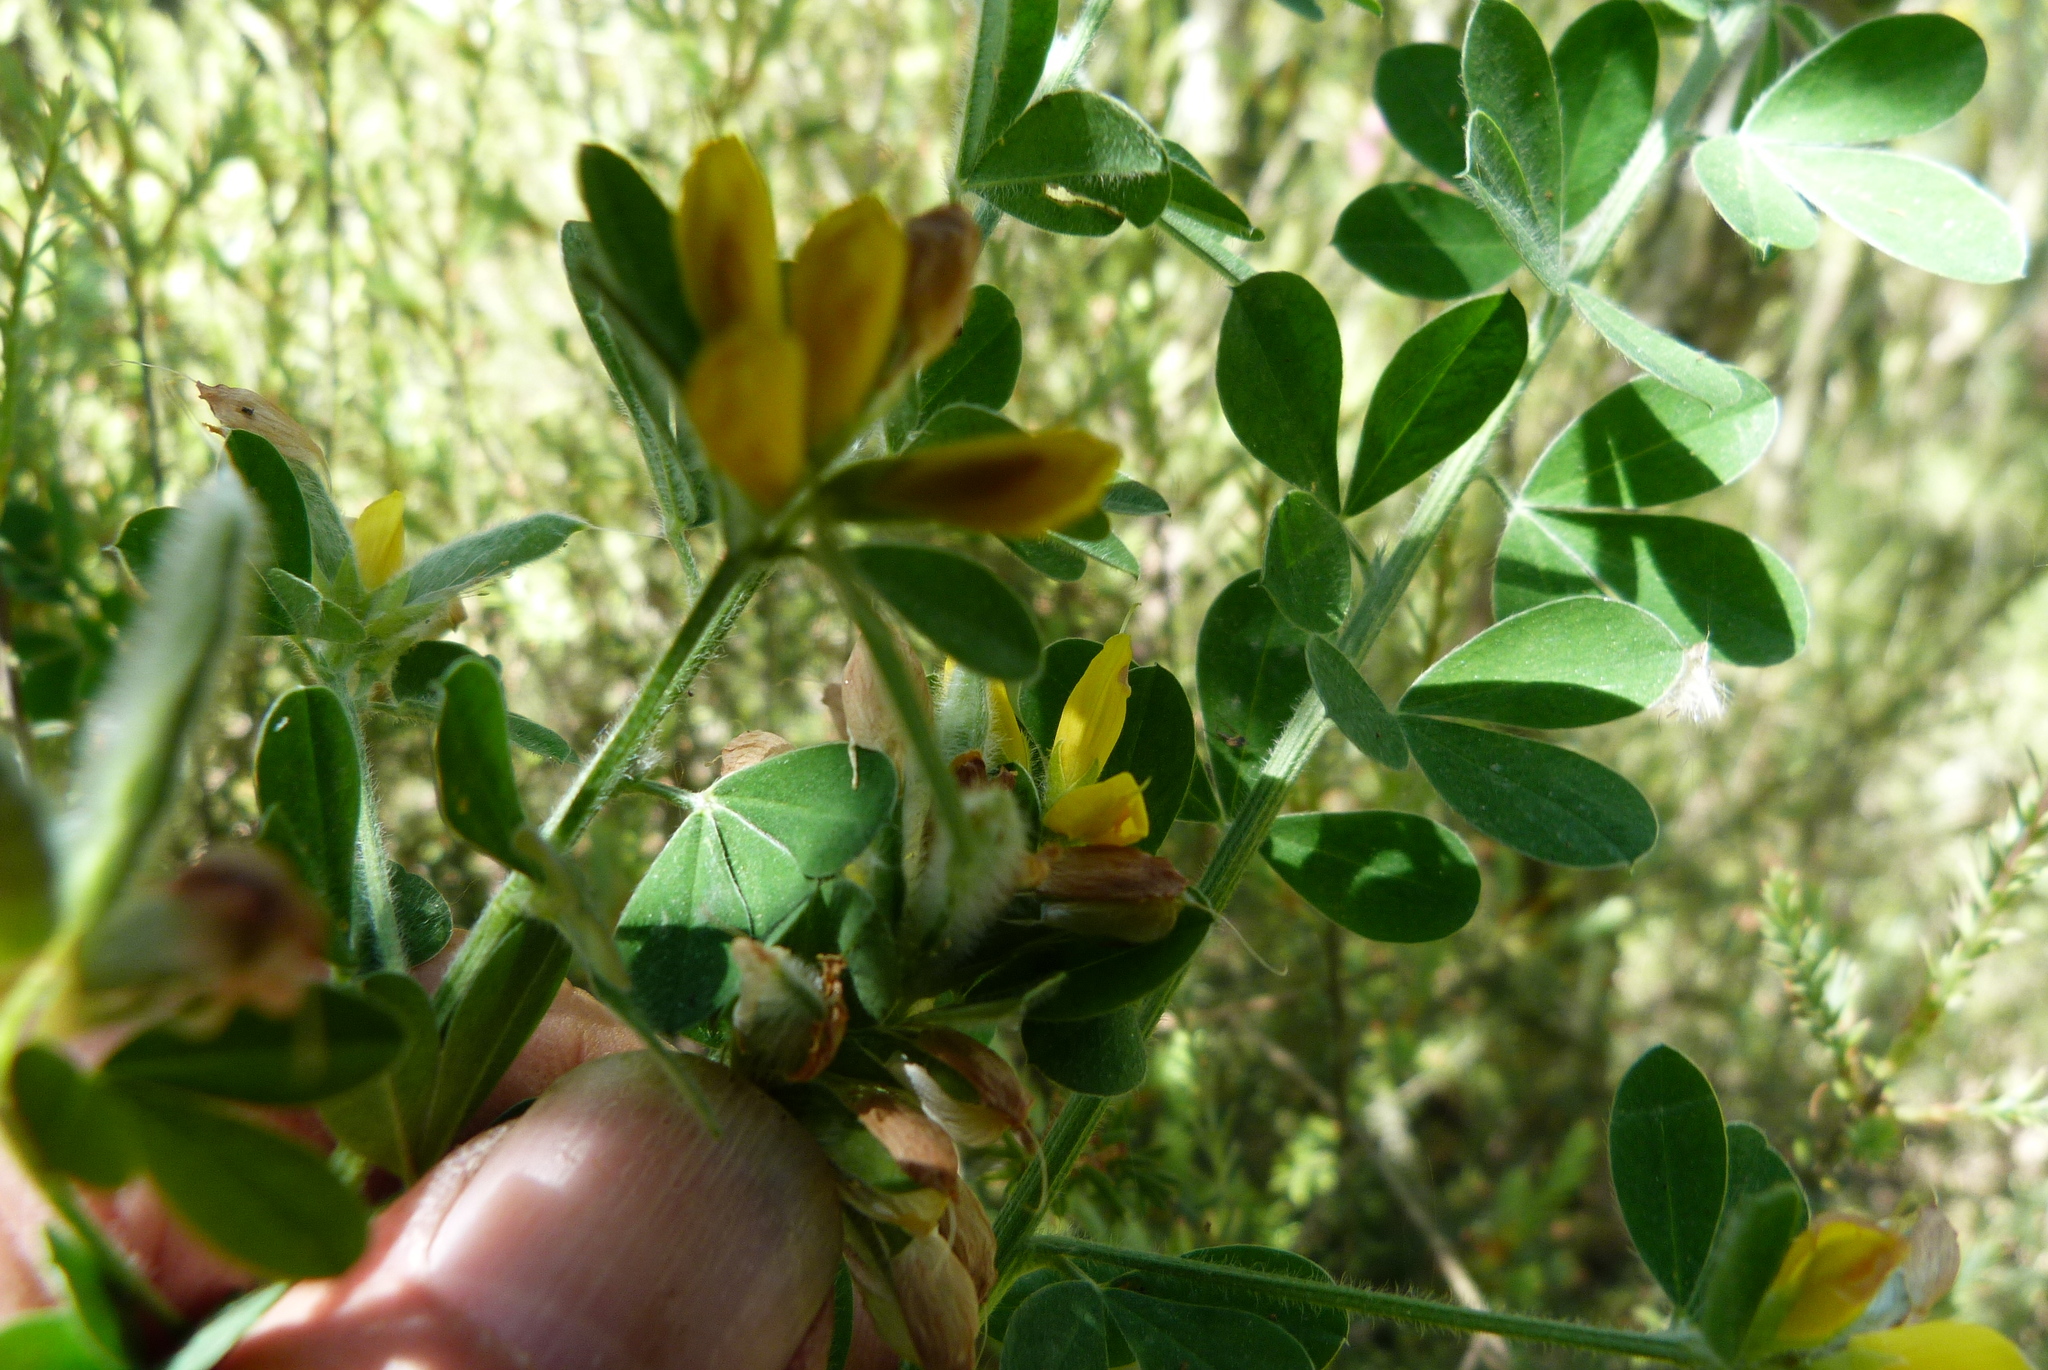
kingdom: Plantae
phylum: Tracheophyta
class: Magnoliopsida
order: Fabales
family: Fabaceae
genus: Genista
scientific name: Genista monspessulana
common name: Montpellier broom
